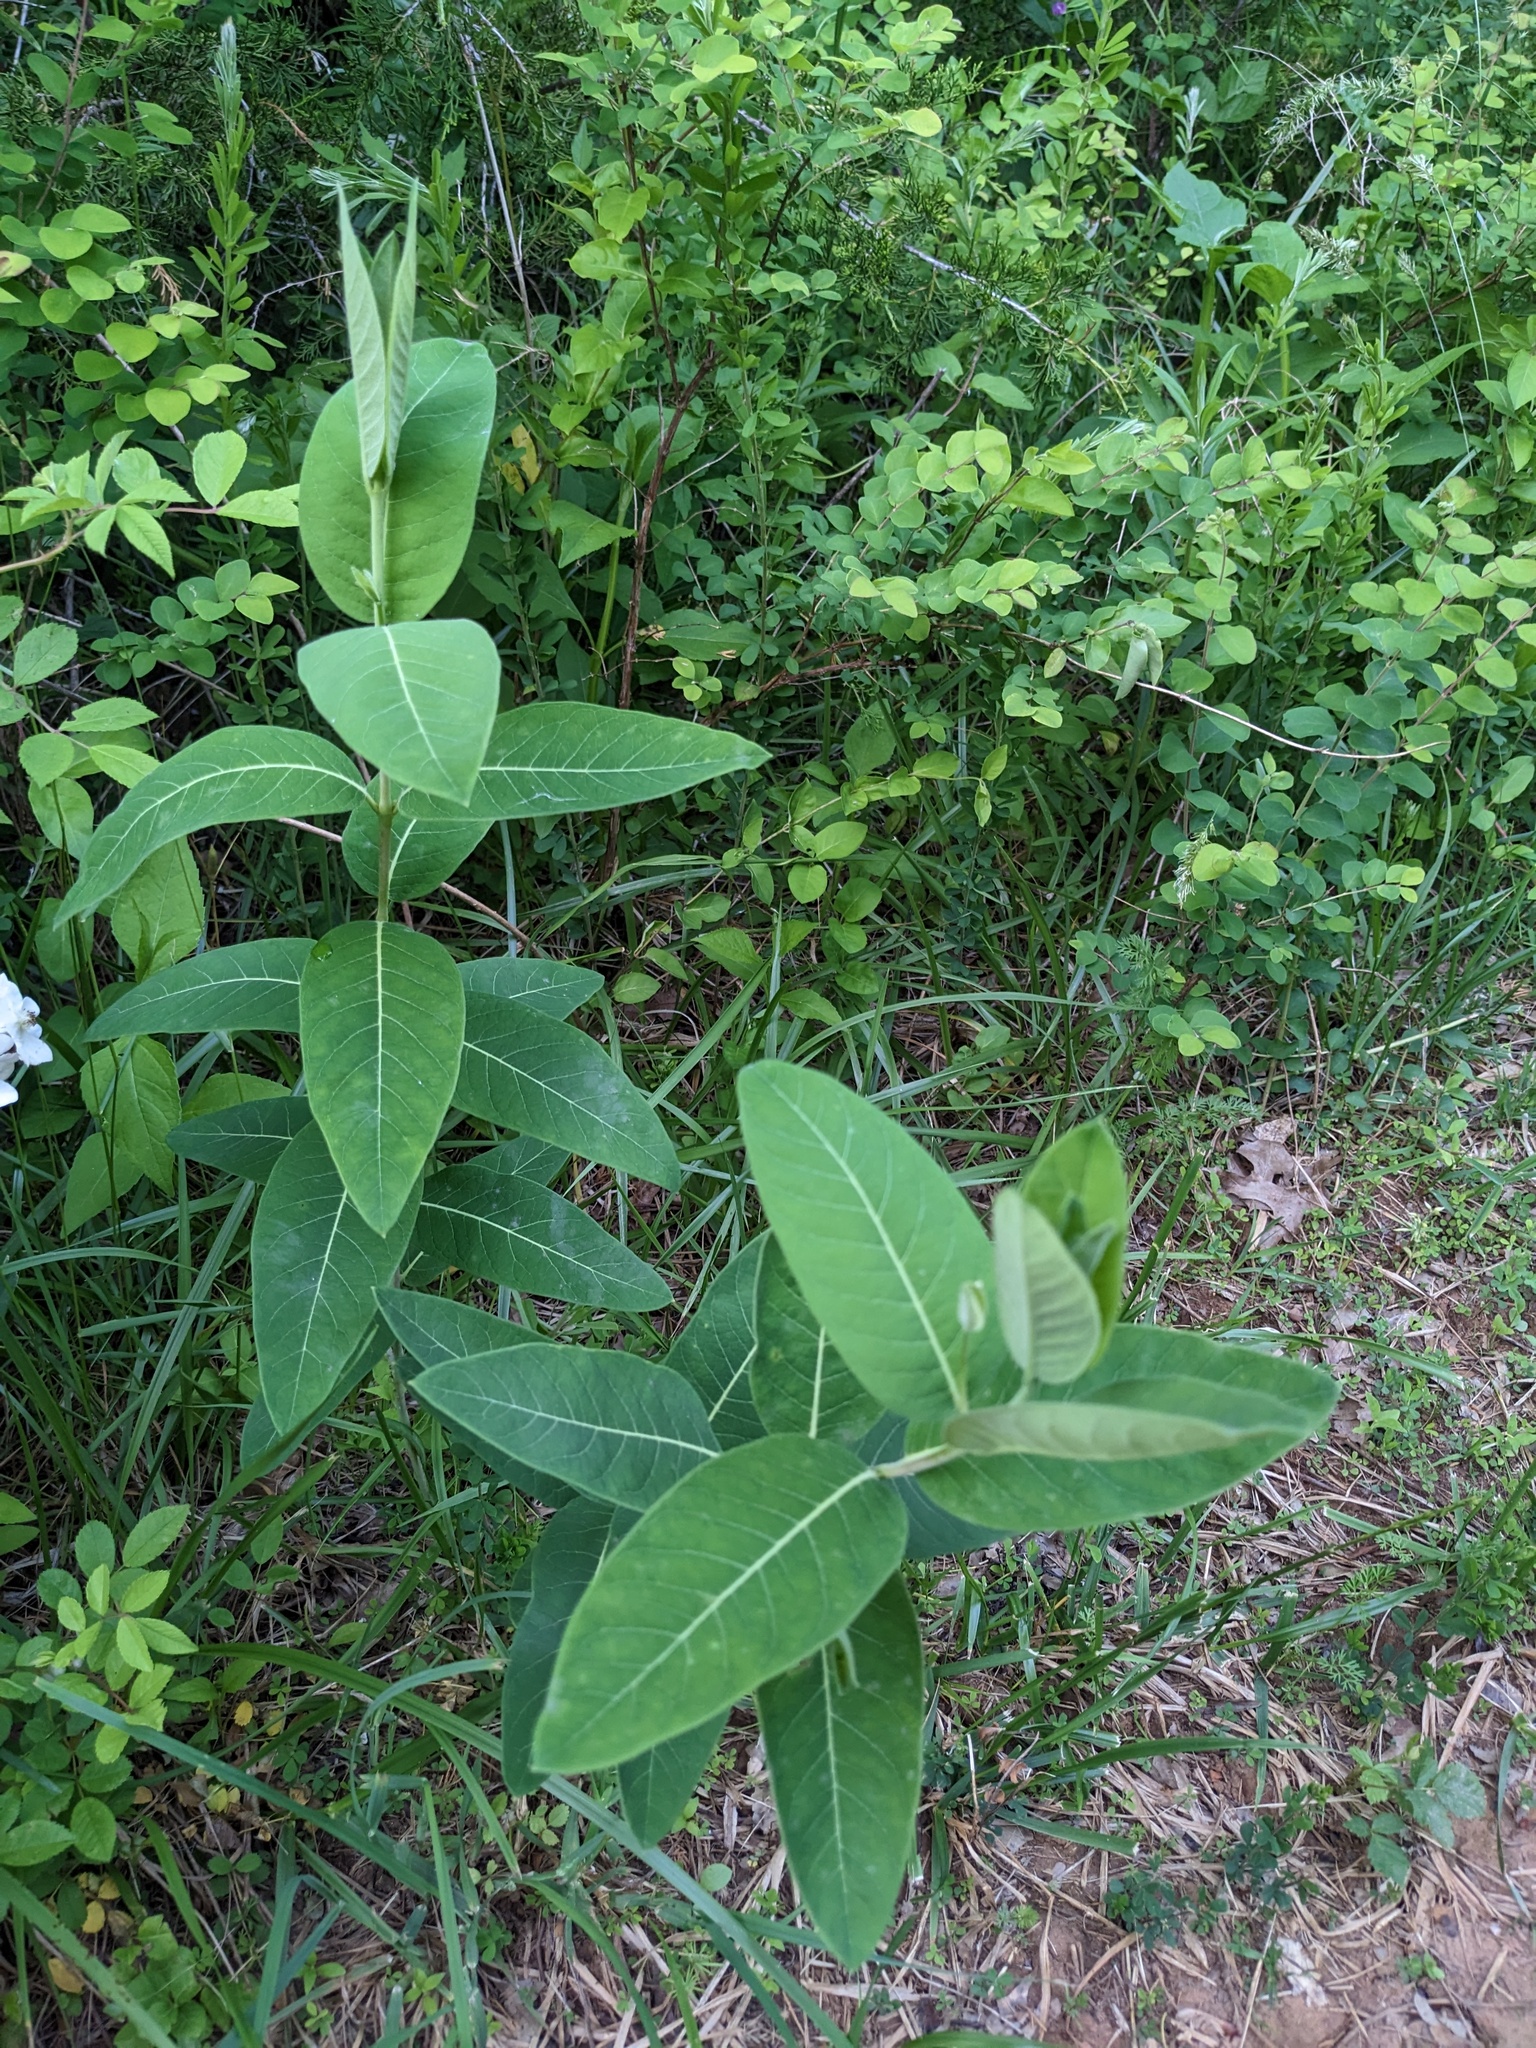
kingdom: Plantae
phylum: Tracheophyta
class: Magnoliopsida
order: Gentianales
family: Apocynaceae
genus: Apocynum
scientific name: Apocynum cannabinum
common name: Hemp dogbane
